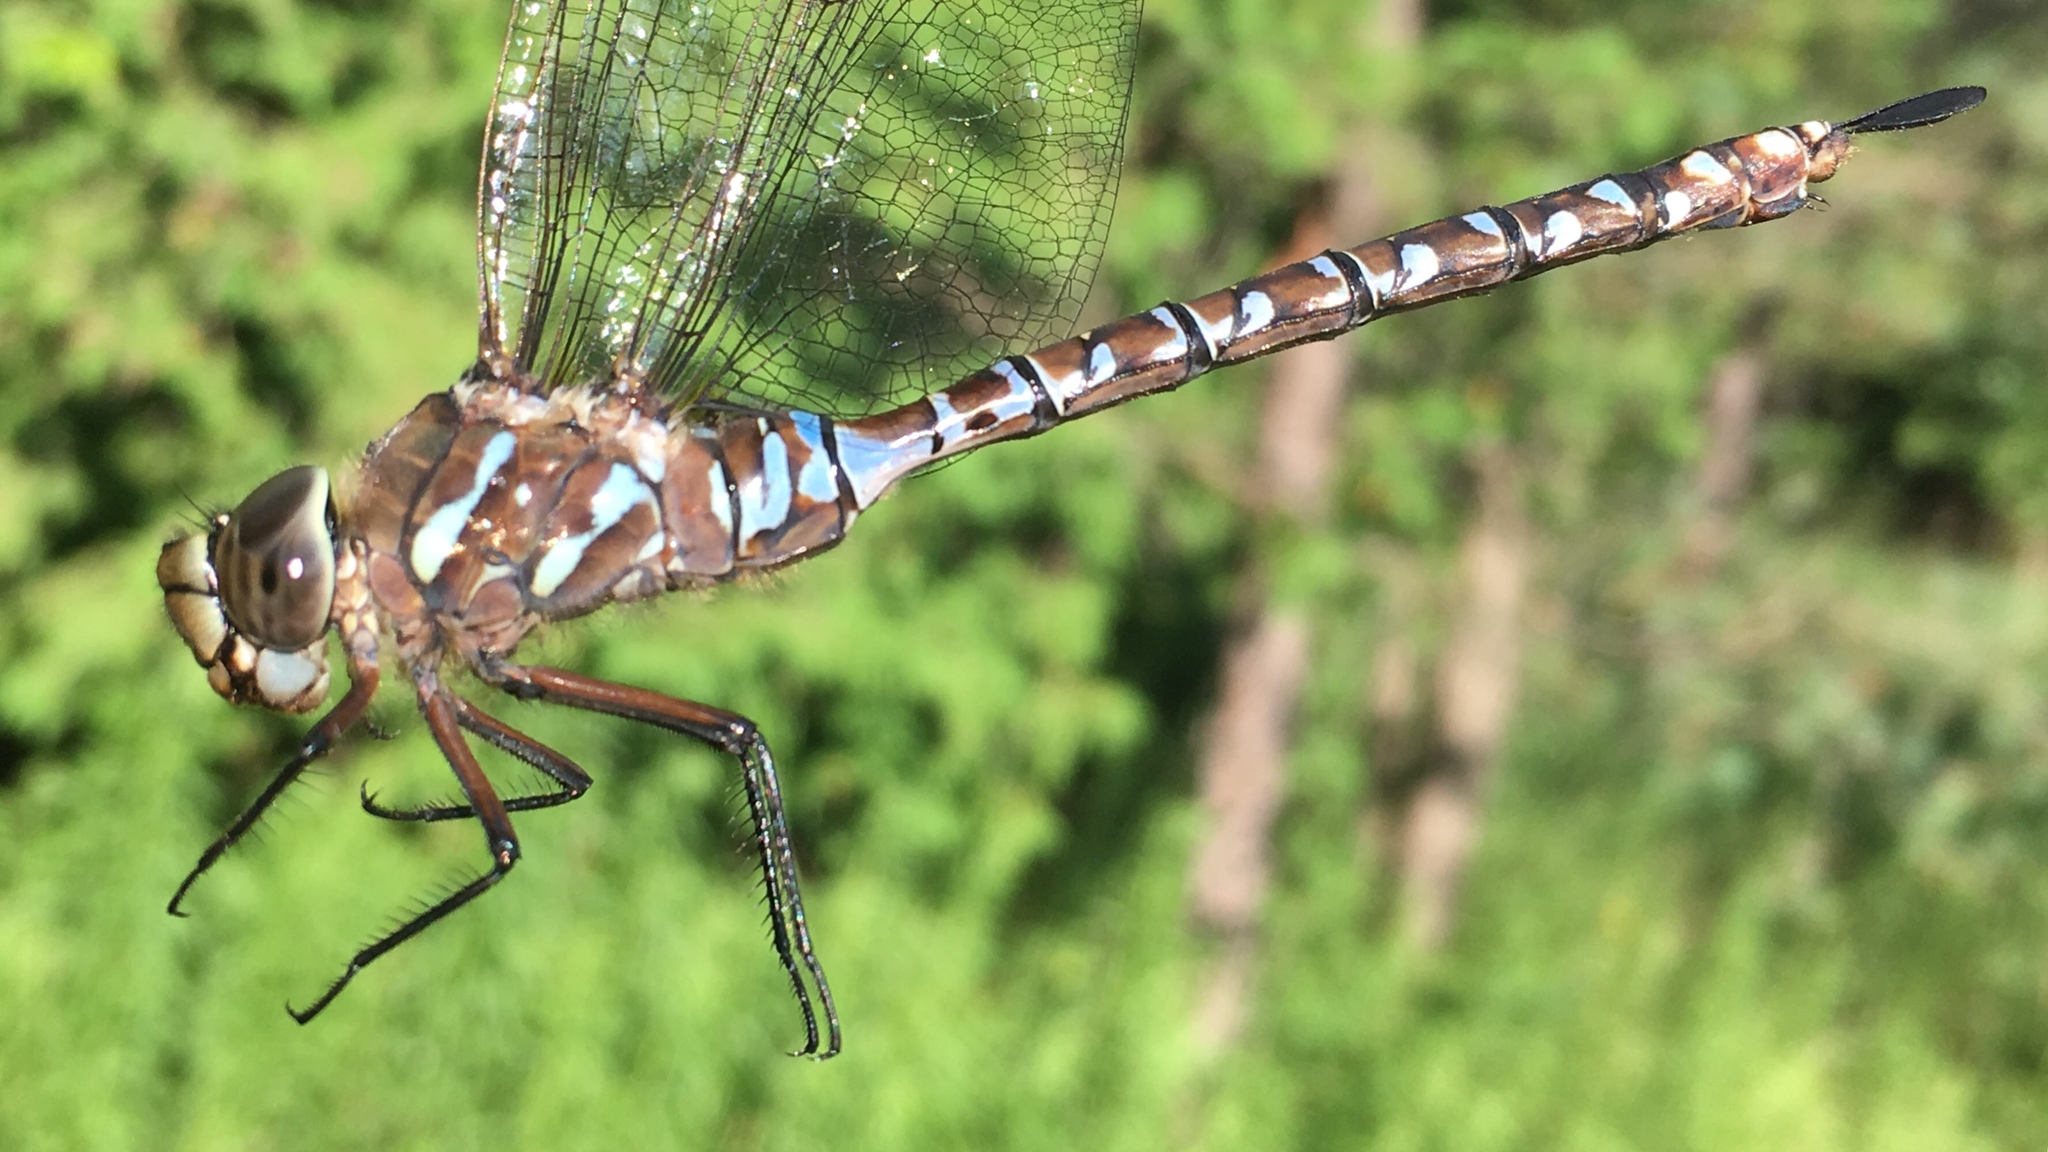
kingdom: Animalia
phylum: Arthropoda
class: Insecta
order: Odonata
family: Aeshnidae
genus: Aeshna
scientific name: Aeshna interrupta
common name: Variable darner
